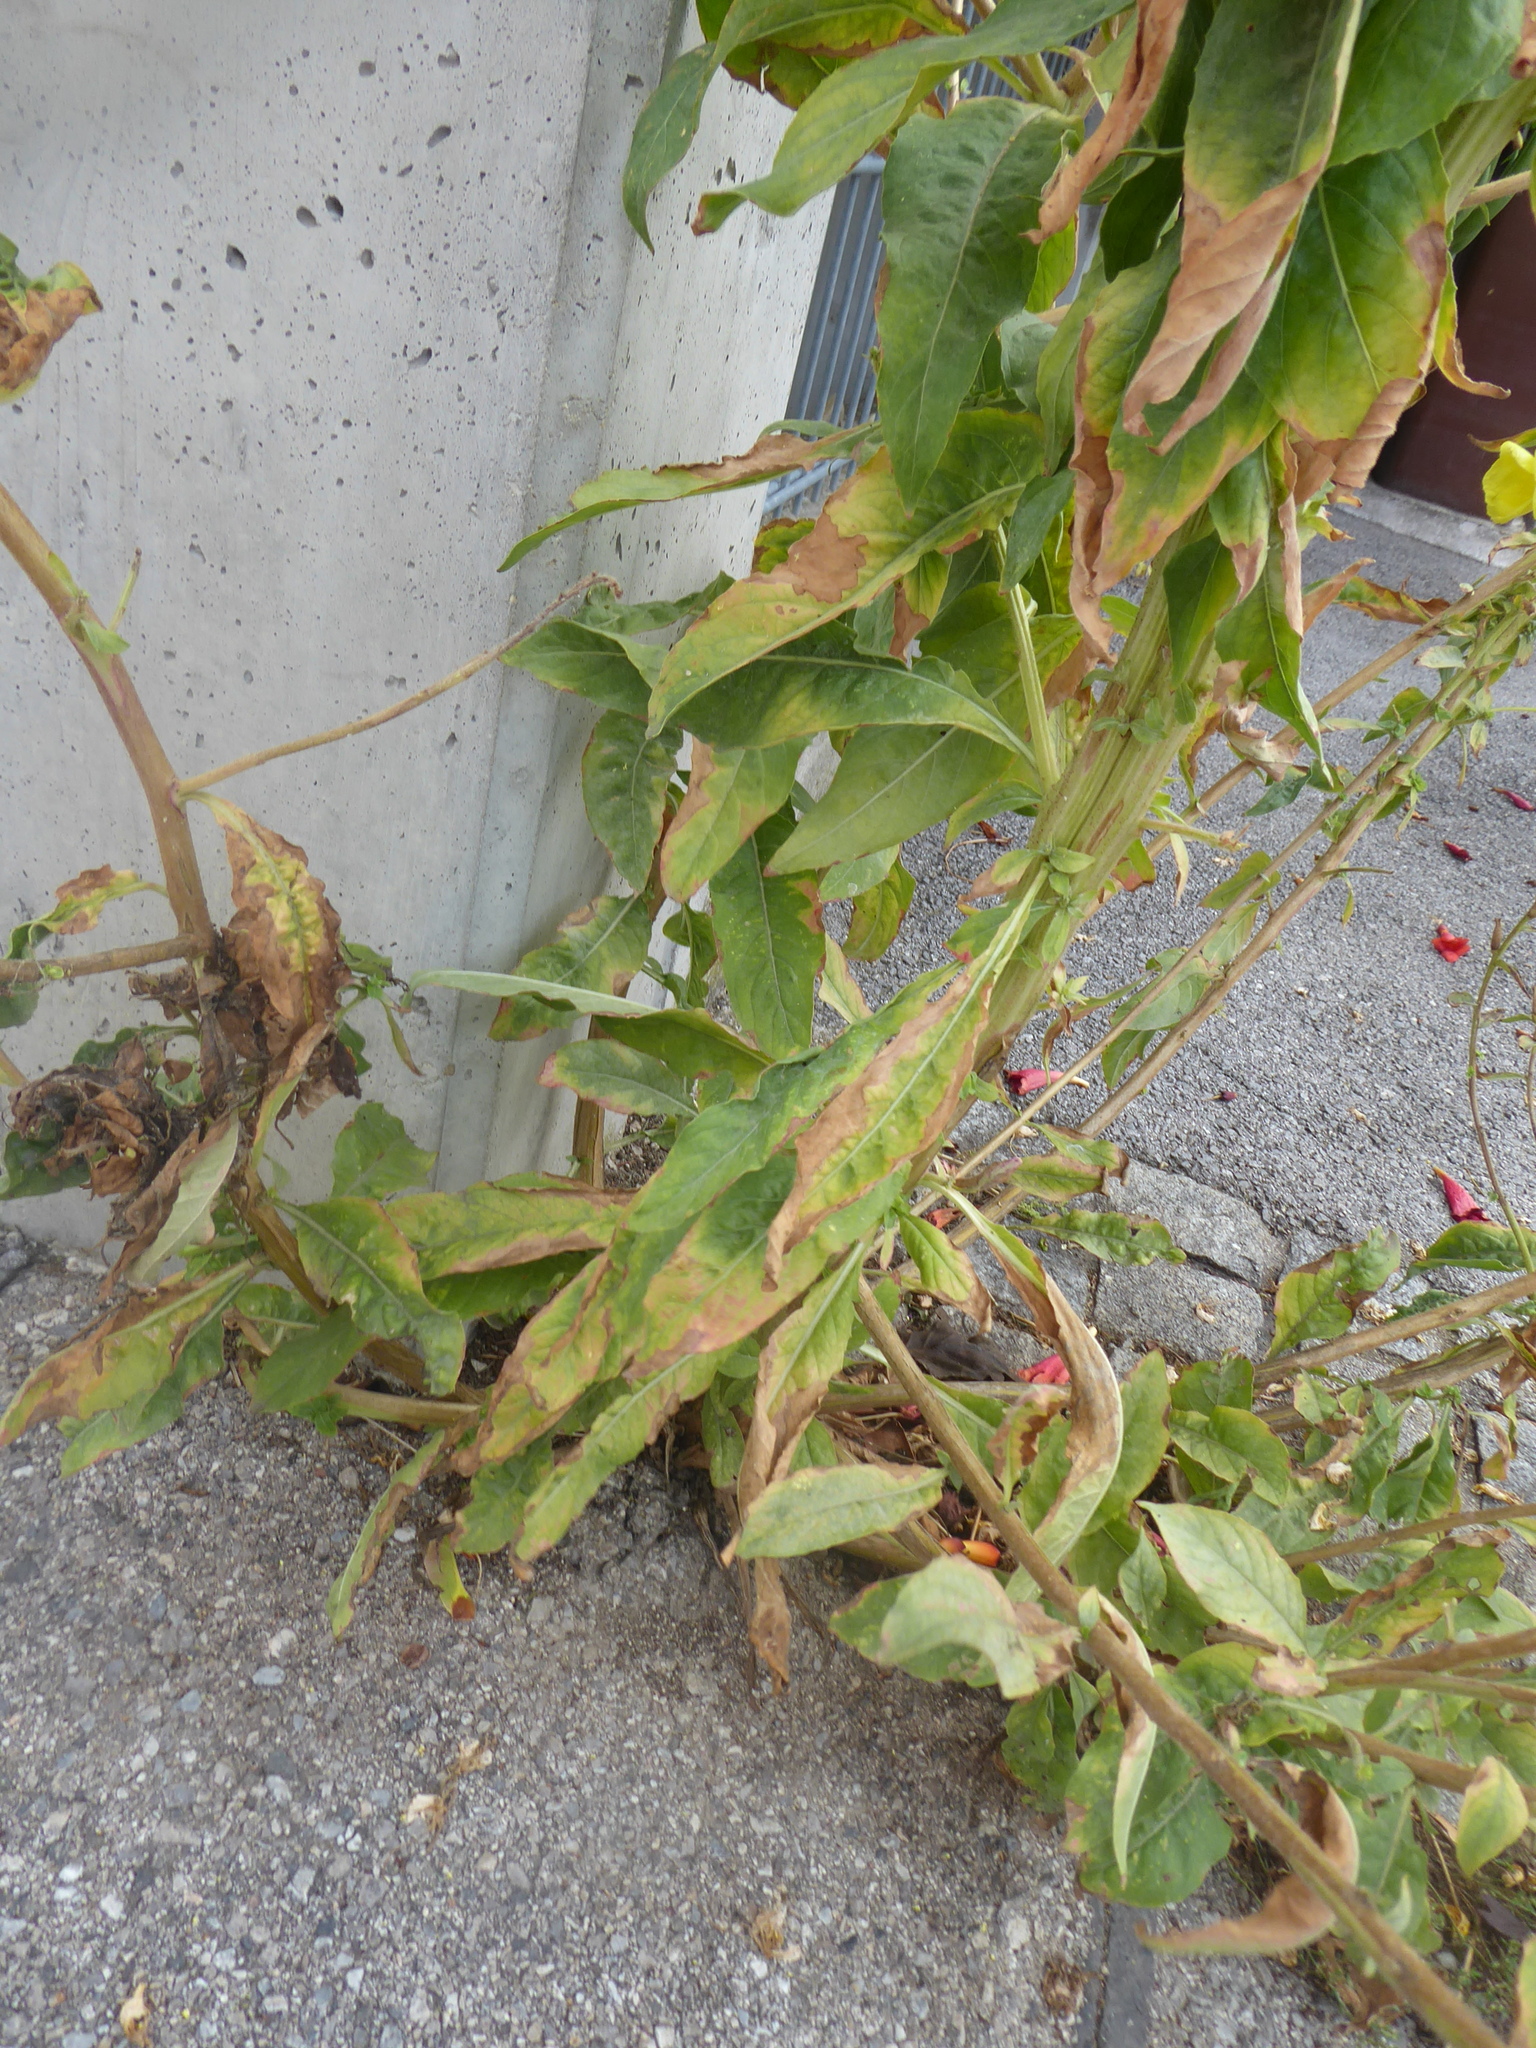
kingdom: Plantae
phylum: Tracheophyta
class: Magnoliopsida
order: Myrtales
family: Onagraceae
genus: Oenothera
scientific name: Oenothera glazioviana
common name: Large-flowered evening-primrose
